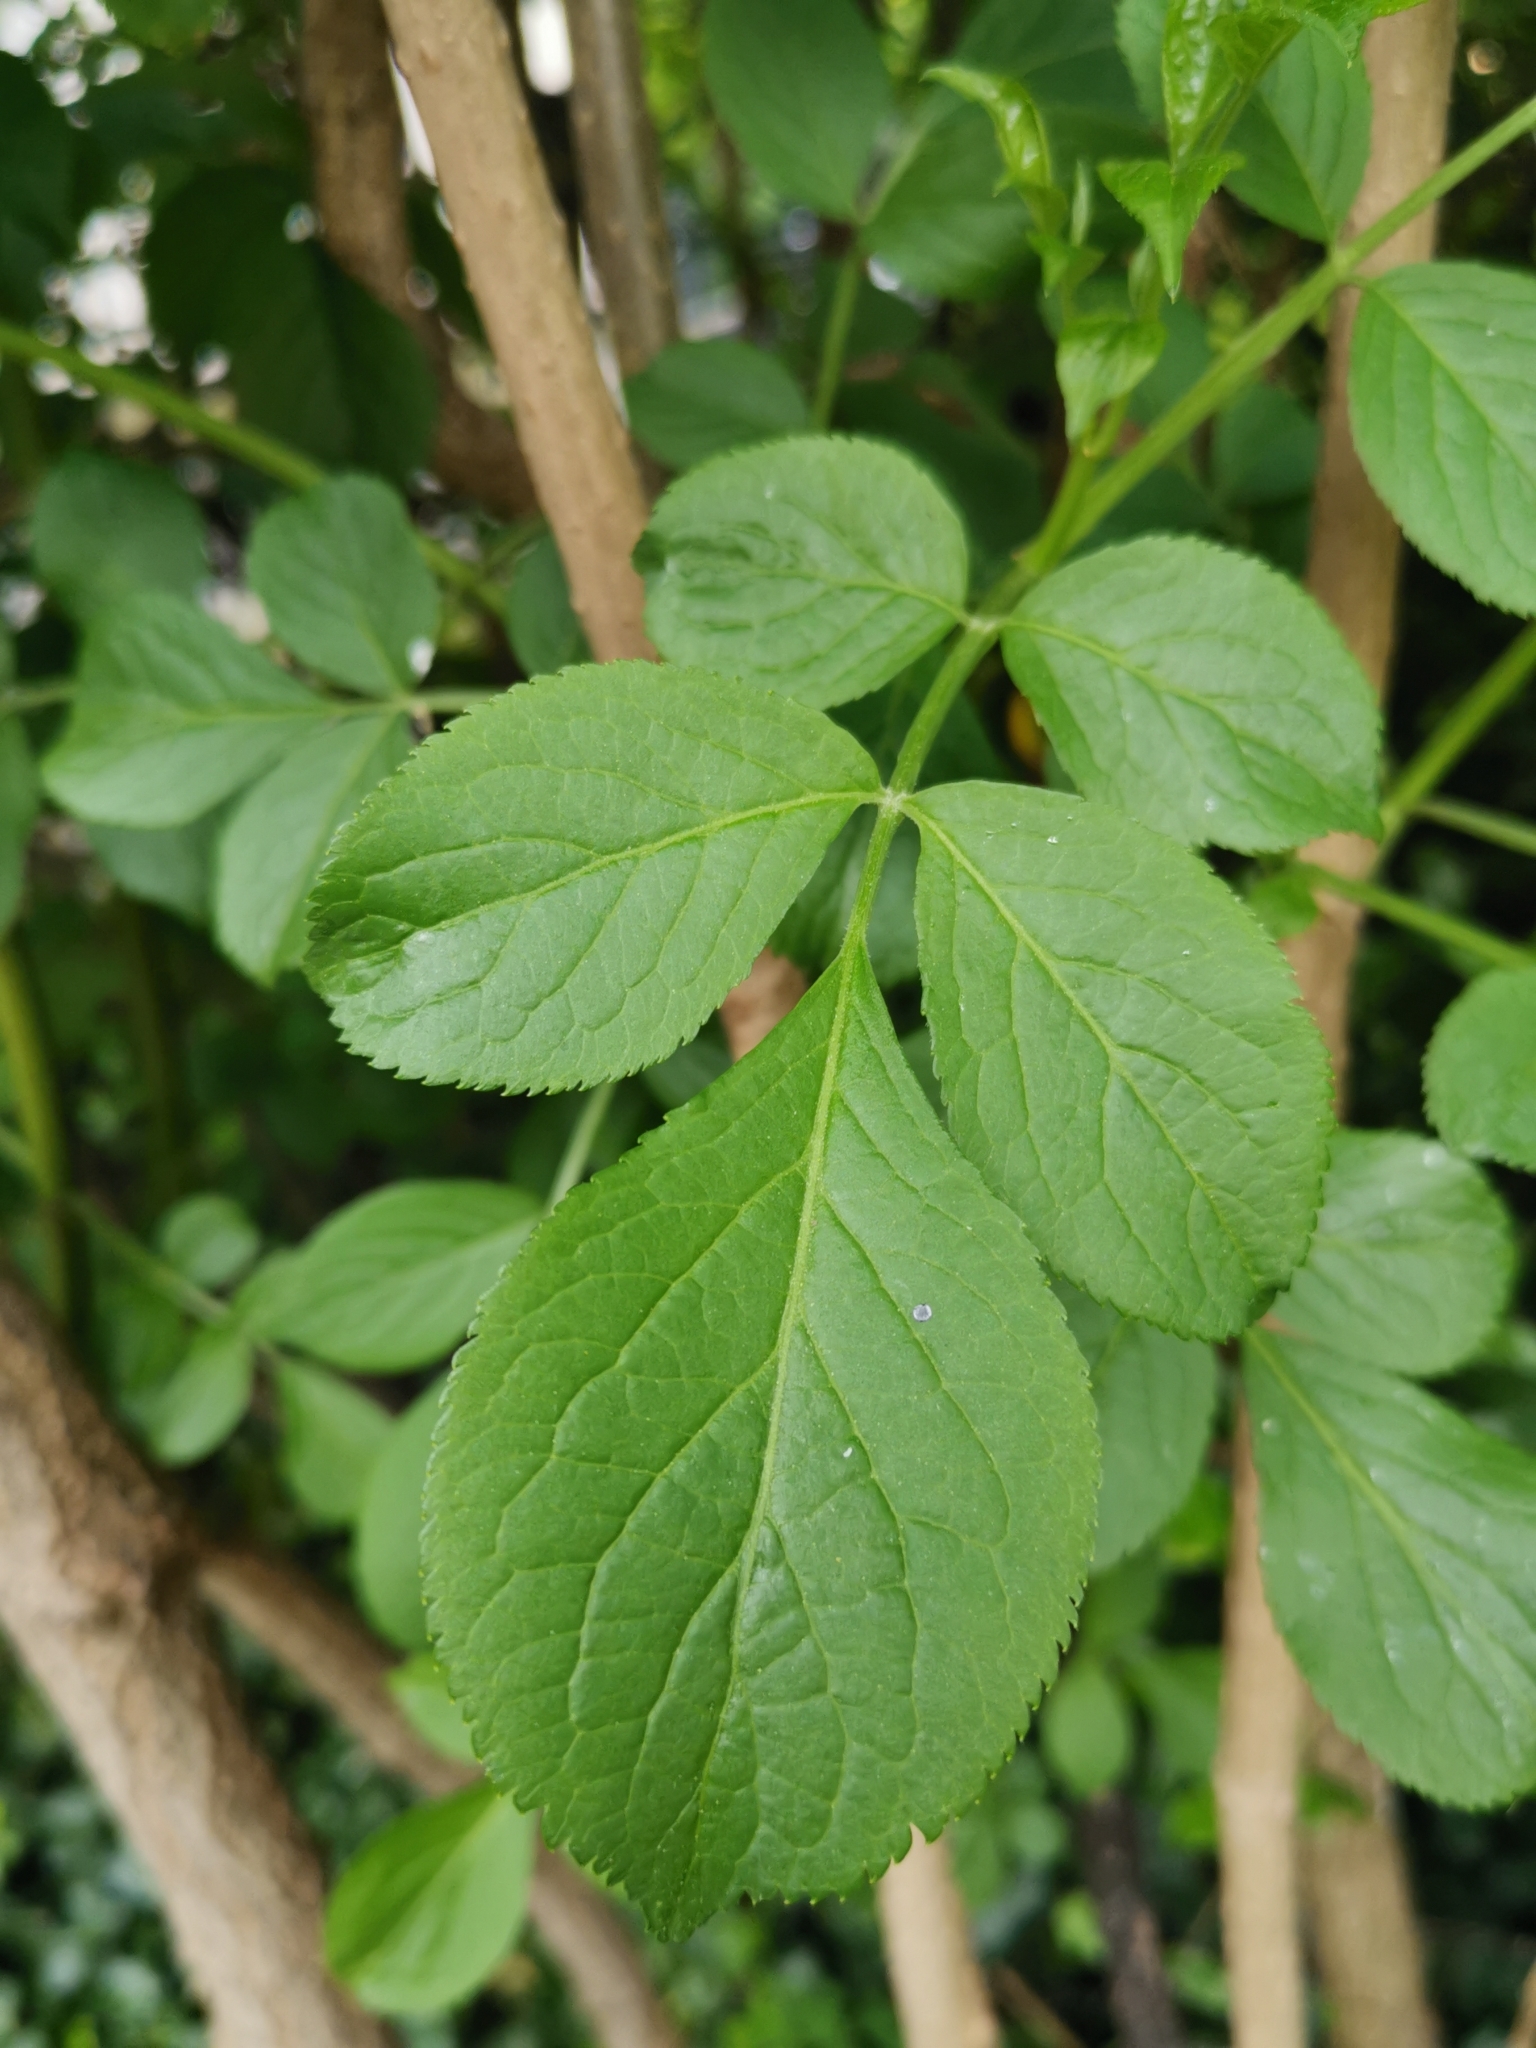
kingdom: Plantae
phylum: Tracheophyta
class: Magnoliopsida
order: Dipsacales
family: Viburnaceae
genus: Sambucus
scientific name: Sambucus nigra
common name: Elder
